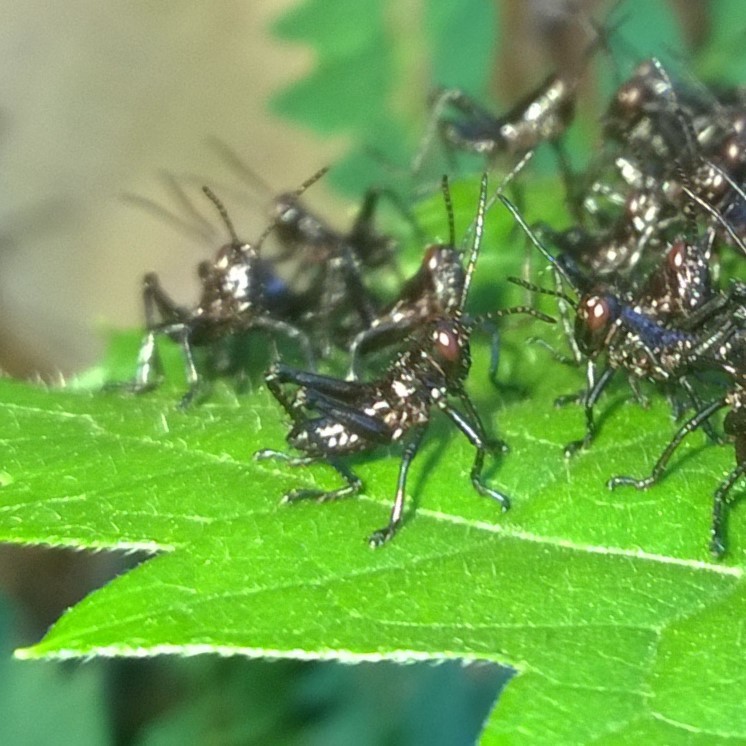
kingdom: Animalia
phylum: Arthropoda
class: Insecta
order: Orthoptera
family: Romaleidae
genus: Chromacris
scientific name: Chromacris speciosa
